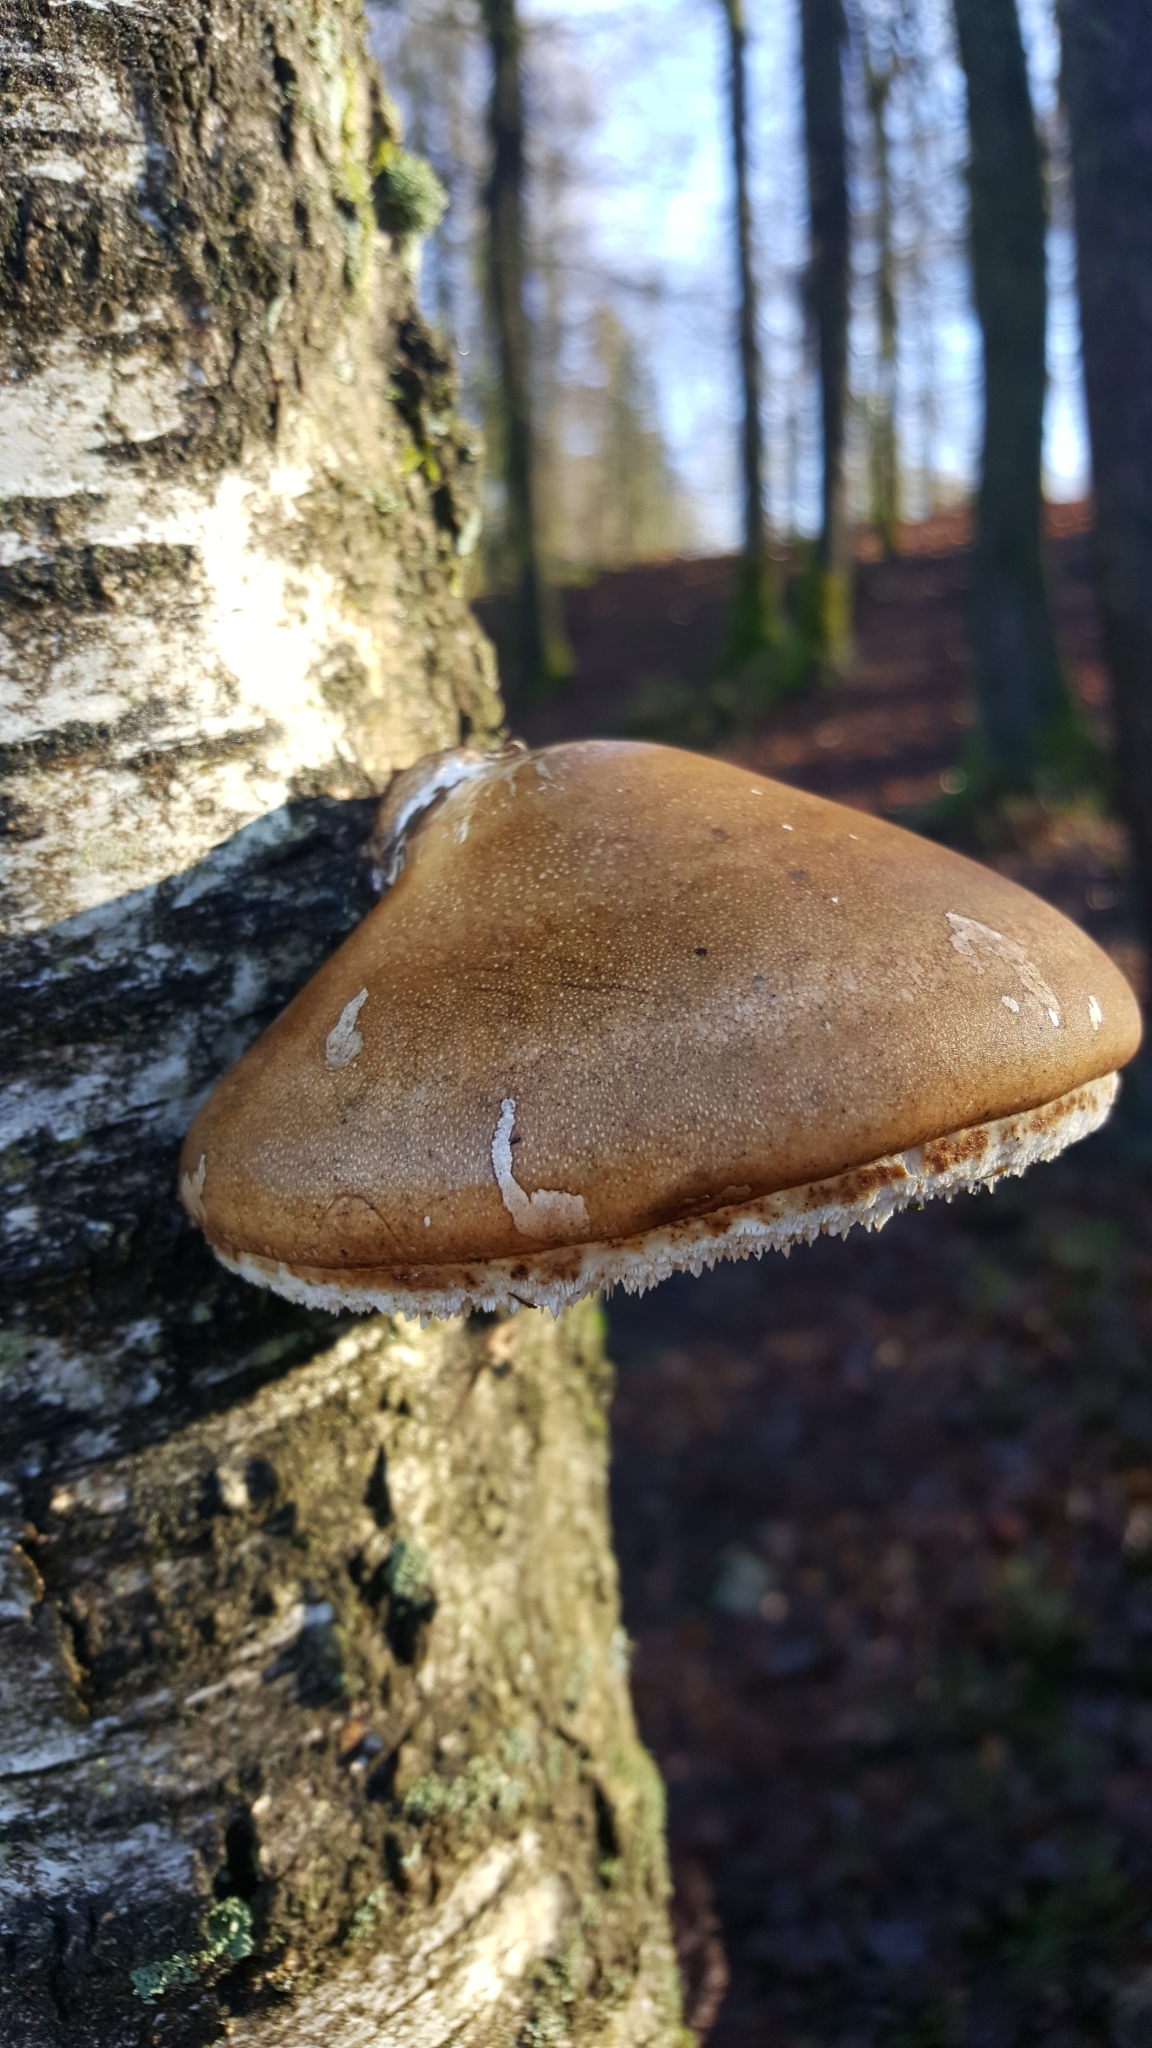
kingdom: Fungi
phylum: Basidiomycota
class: Agaricomycetes
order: Polyporales
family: Fomitopsidaceae
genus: Fomitopsis
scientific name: Fomitopsis betulina
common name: Birch polypore
